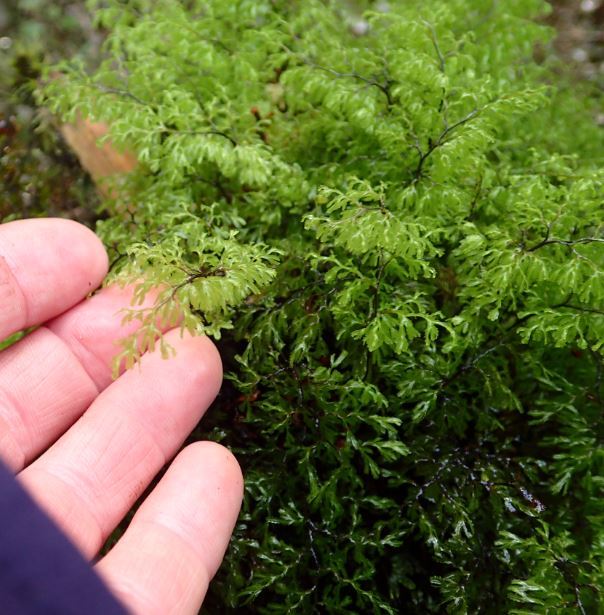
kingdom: Plantae
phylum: Tracheophyta
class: Polypodiopsida
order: Hymenophyllales
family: Hymenophyllaceae
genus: Hymenophyllum
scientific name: Hymenophyllum multifidum
